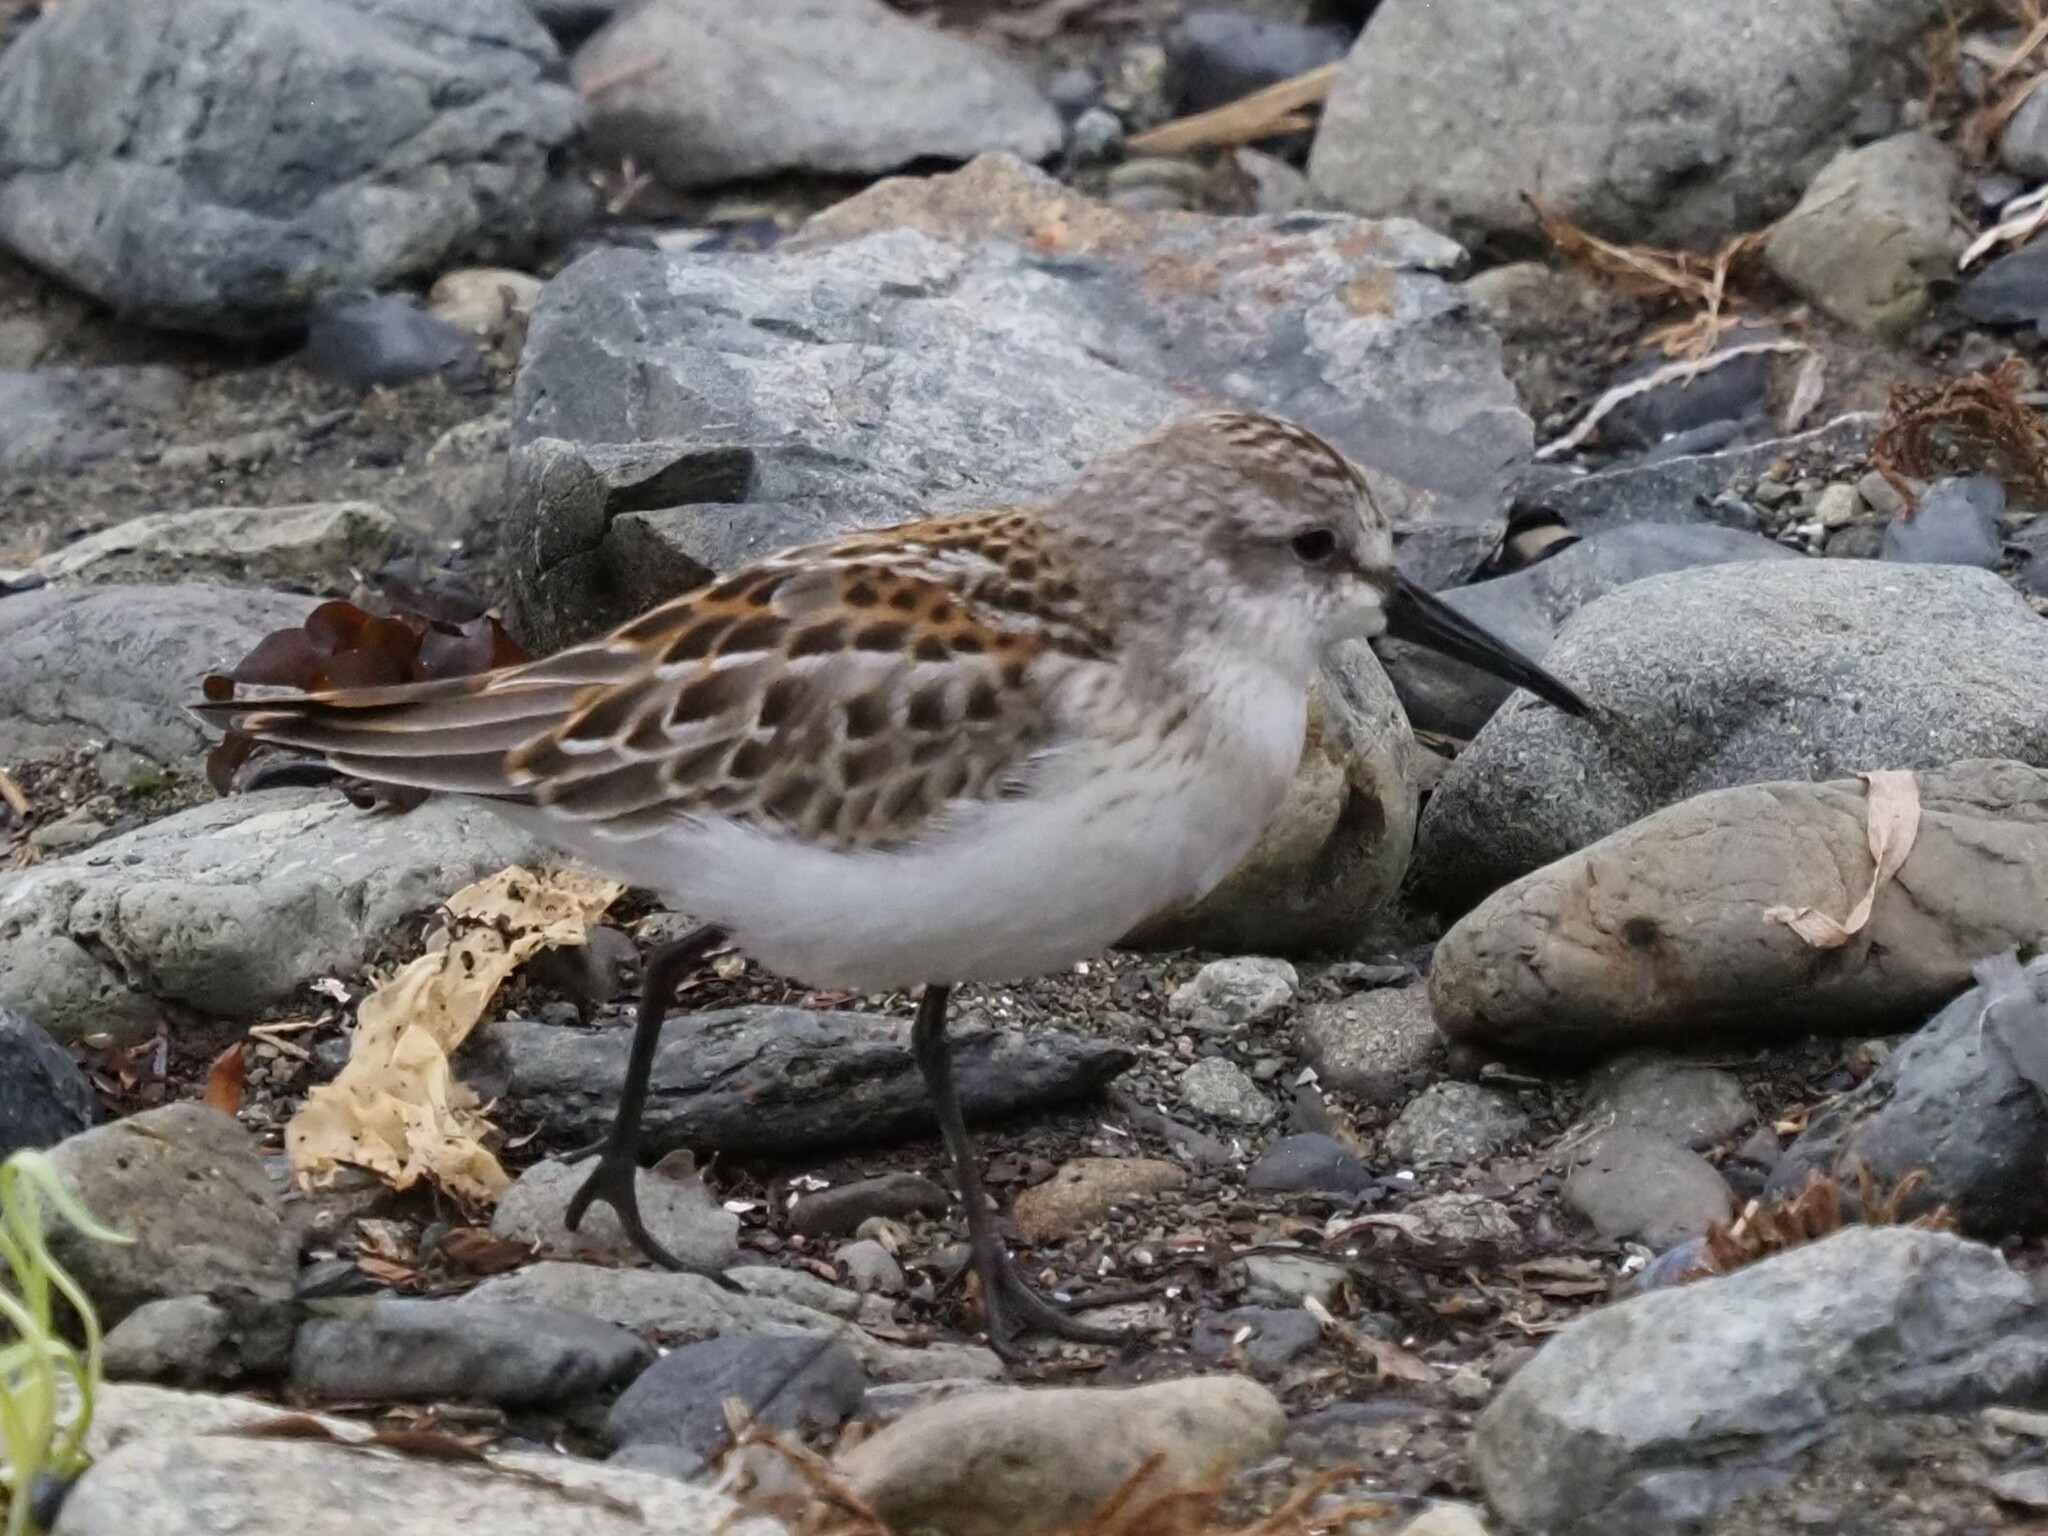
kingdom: Animalia
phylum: Chordata
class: Aves
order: Charadriiformes
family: Scolopacidae
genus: Calidris
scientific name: Calidris mauri
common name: Western sandpiper
